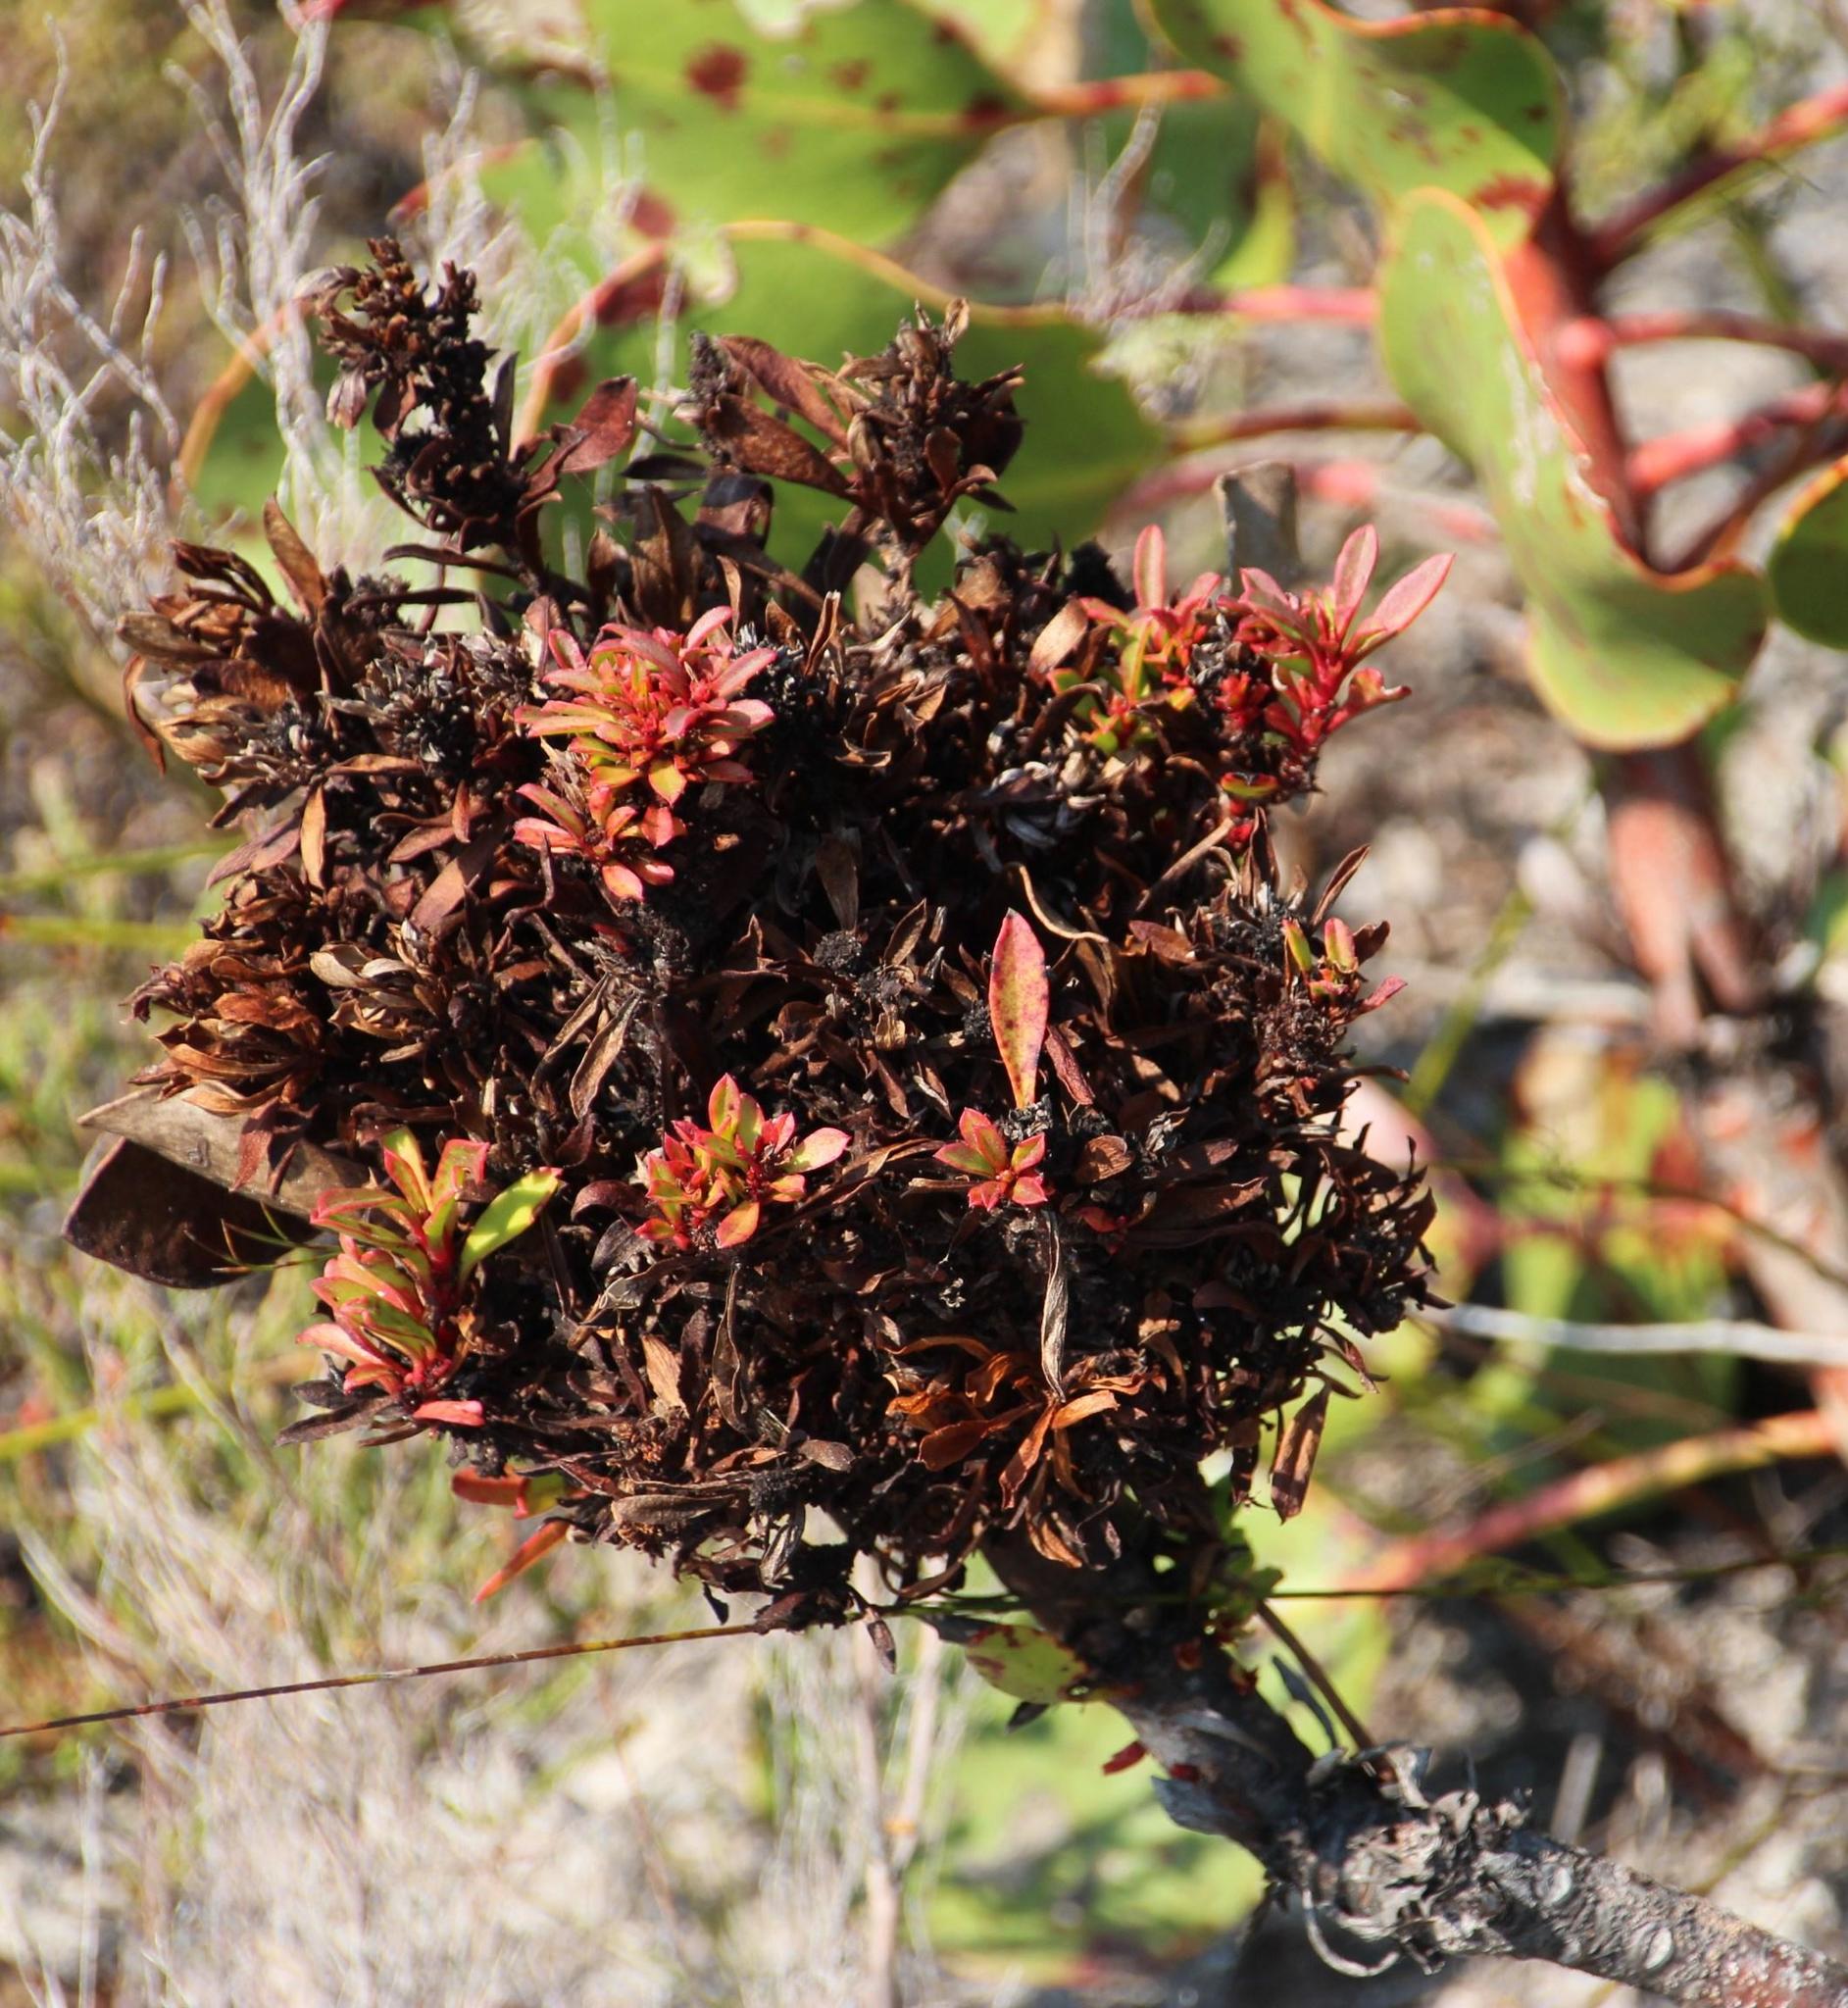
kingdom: Bacteria
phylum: Firmicutes
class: Bacilli
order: Acholeplasmatales
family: Acholeplasmataceae
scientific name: Acholeplasmataceae
